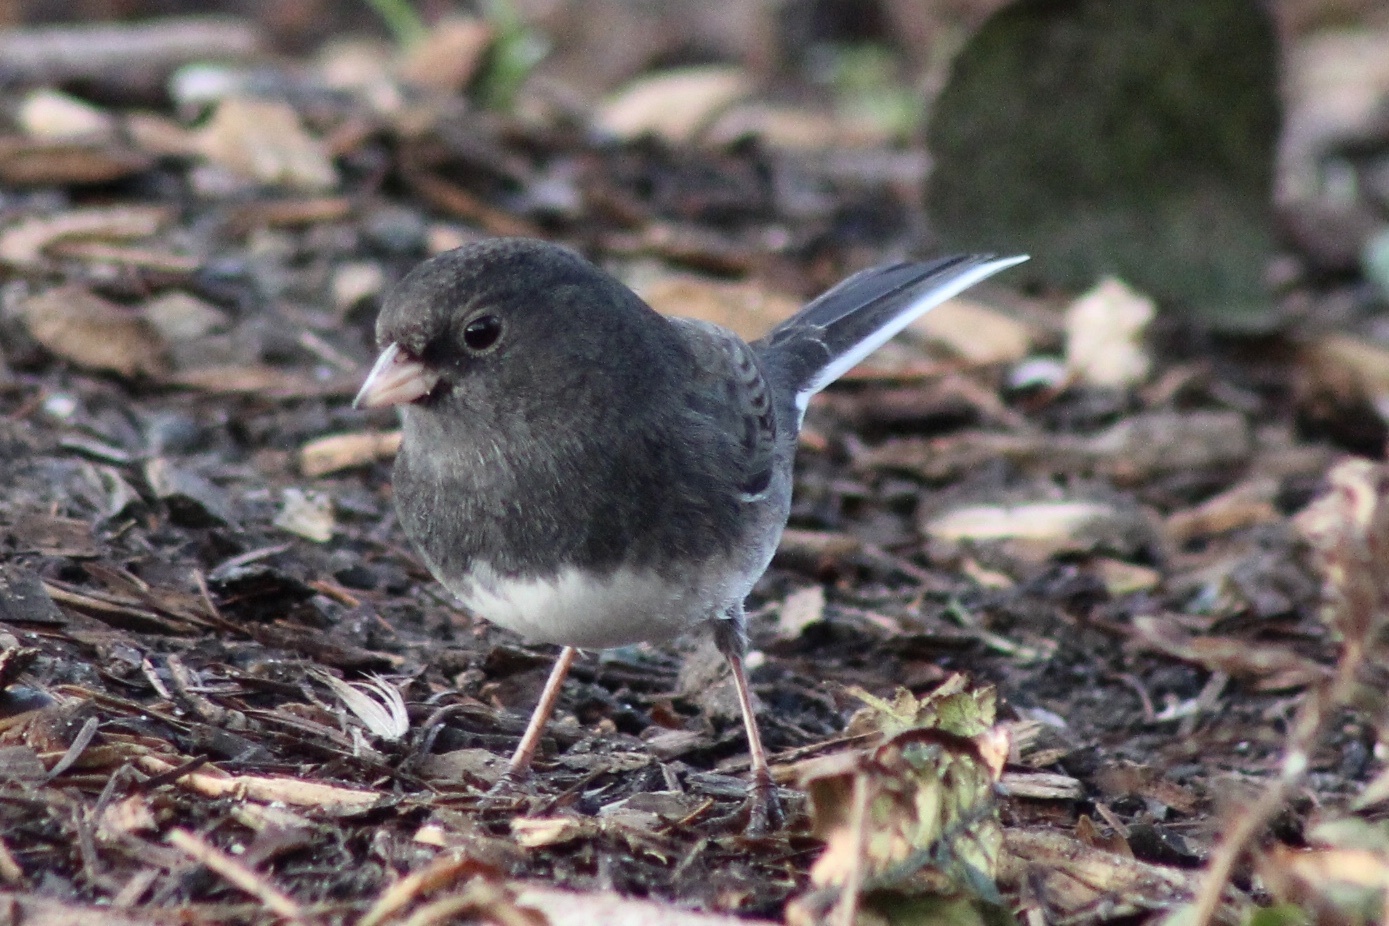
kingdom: Animalia
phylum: Chordata
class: Aves
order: Passeriformes
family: Passerellidae
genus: Junco
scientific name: Junco hyemalis
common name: Dark-eyed junco
